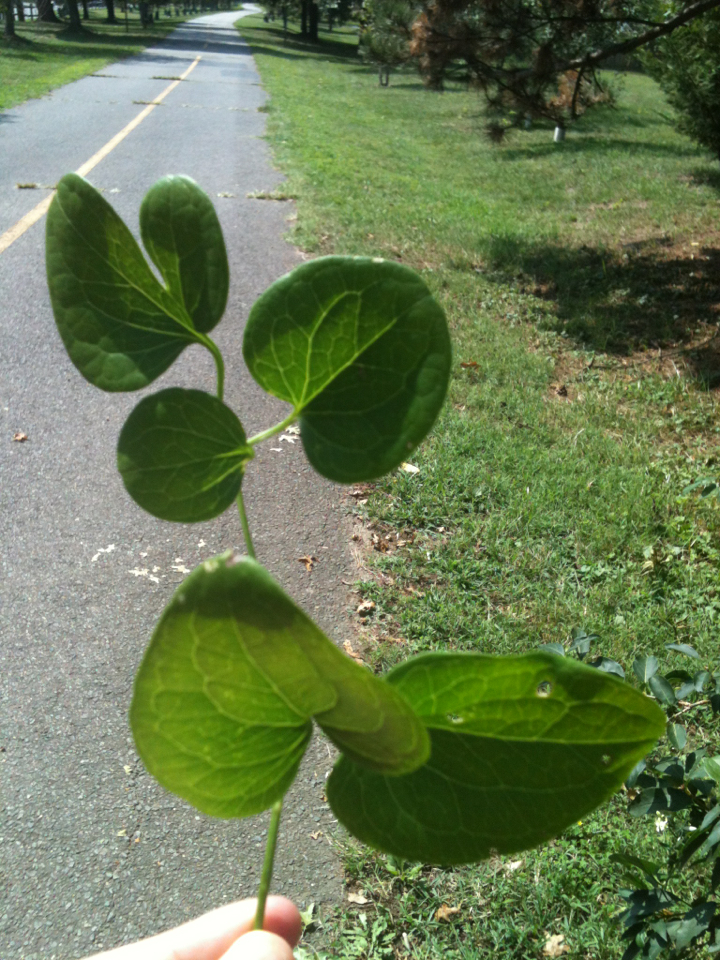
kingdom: Plantae
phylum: Tracheophyta
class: Magnoliopsida
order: Ranunculales
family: Ranunculaceae
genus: Clematis
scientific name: Clematis terniflora
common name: Sweet autumn clematis
